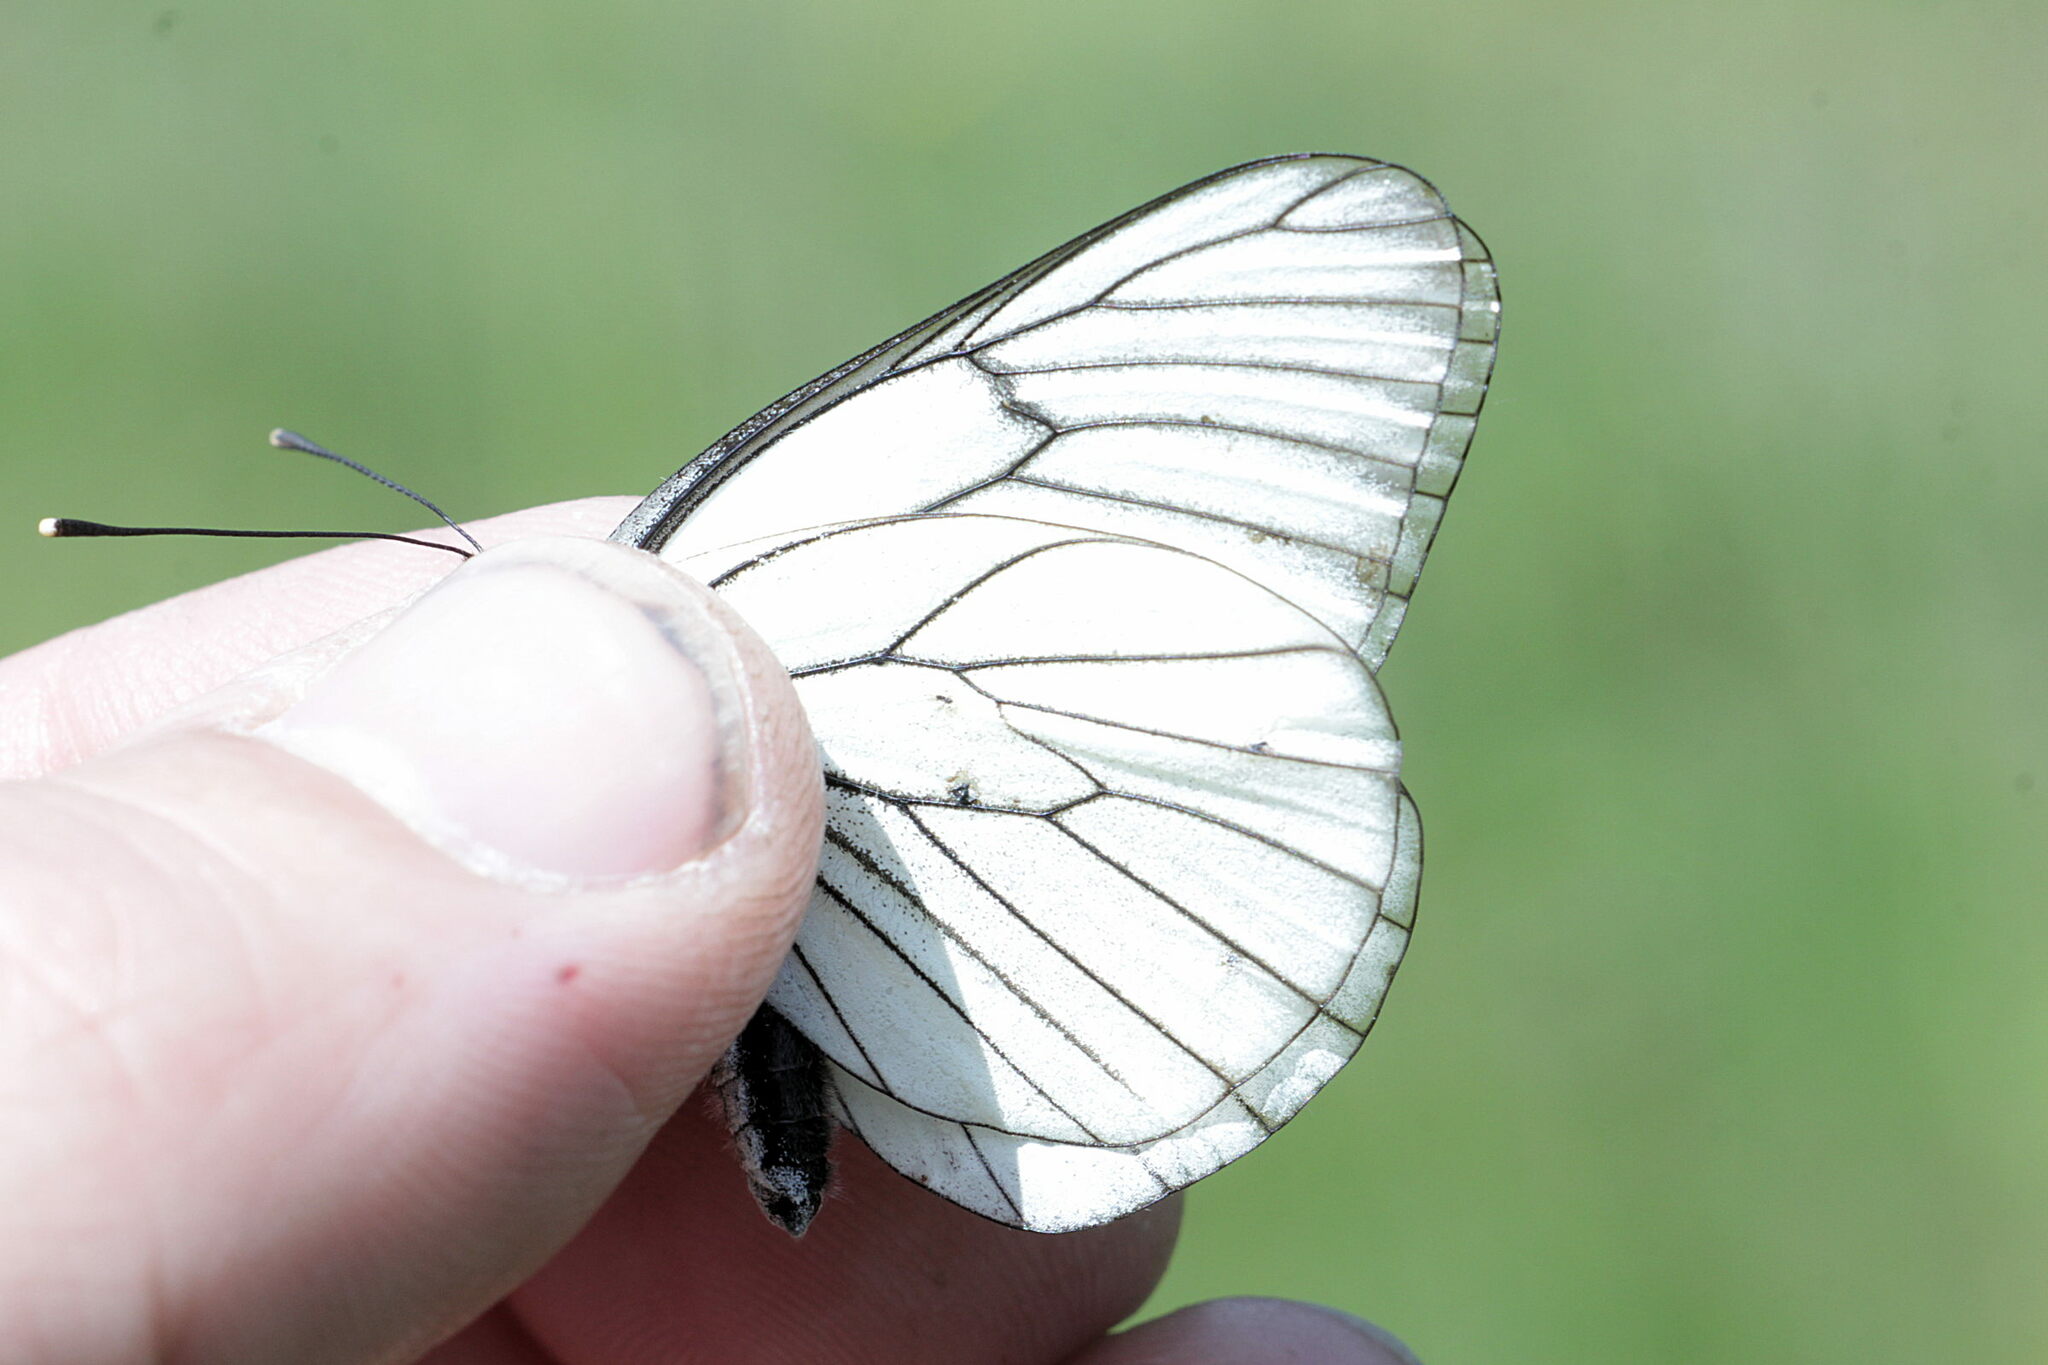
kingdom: Animalia
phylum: Arthropoda
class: Insecta
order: Lepidoptera
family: Pieridae
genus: Aporia
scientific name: Aporia crataegi
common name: Black-veined white
